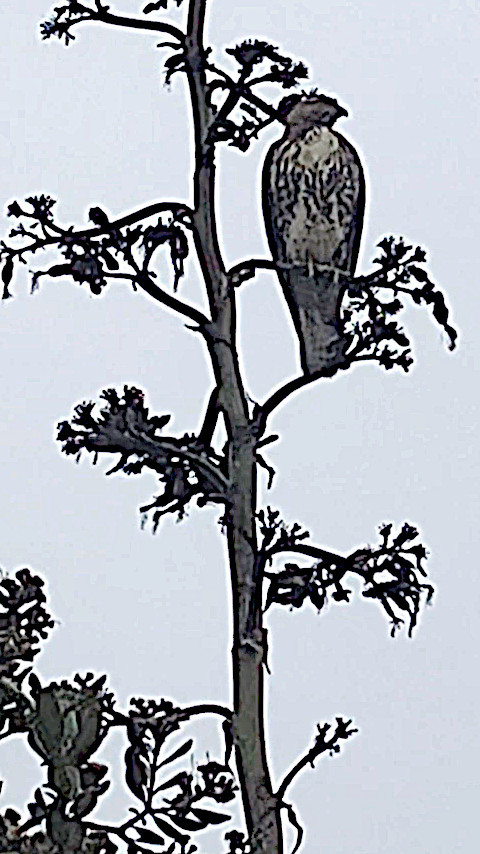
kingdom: Animalia
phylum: Chordata
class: Aves
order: Accipitriformes
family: Accipitridae
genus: Buteo
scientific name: Buteo jamaicensis
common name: Red-tailed hawk
